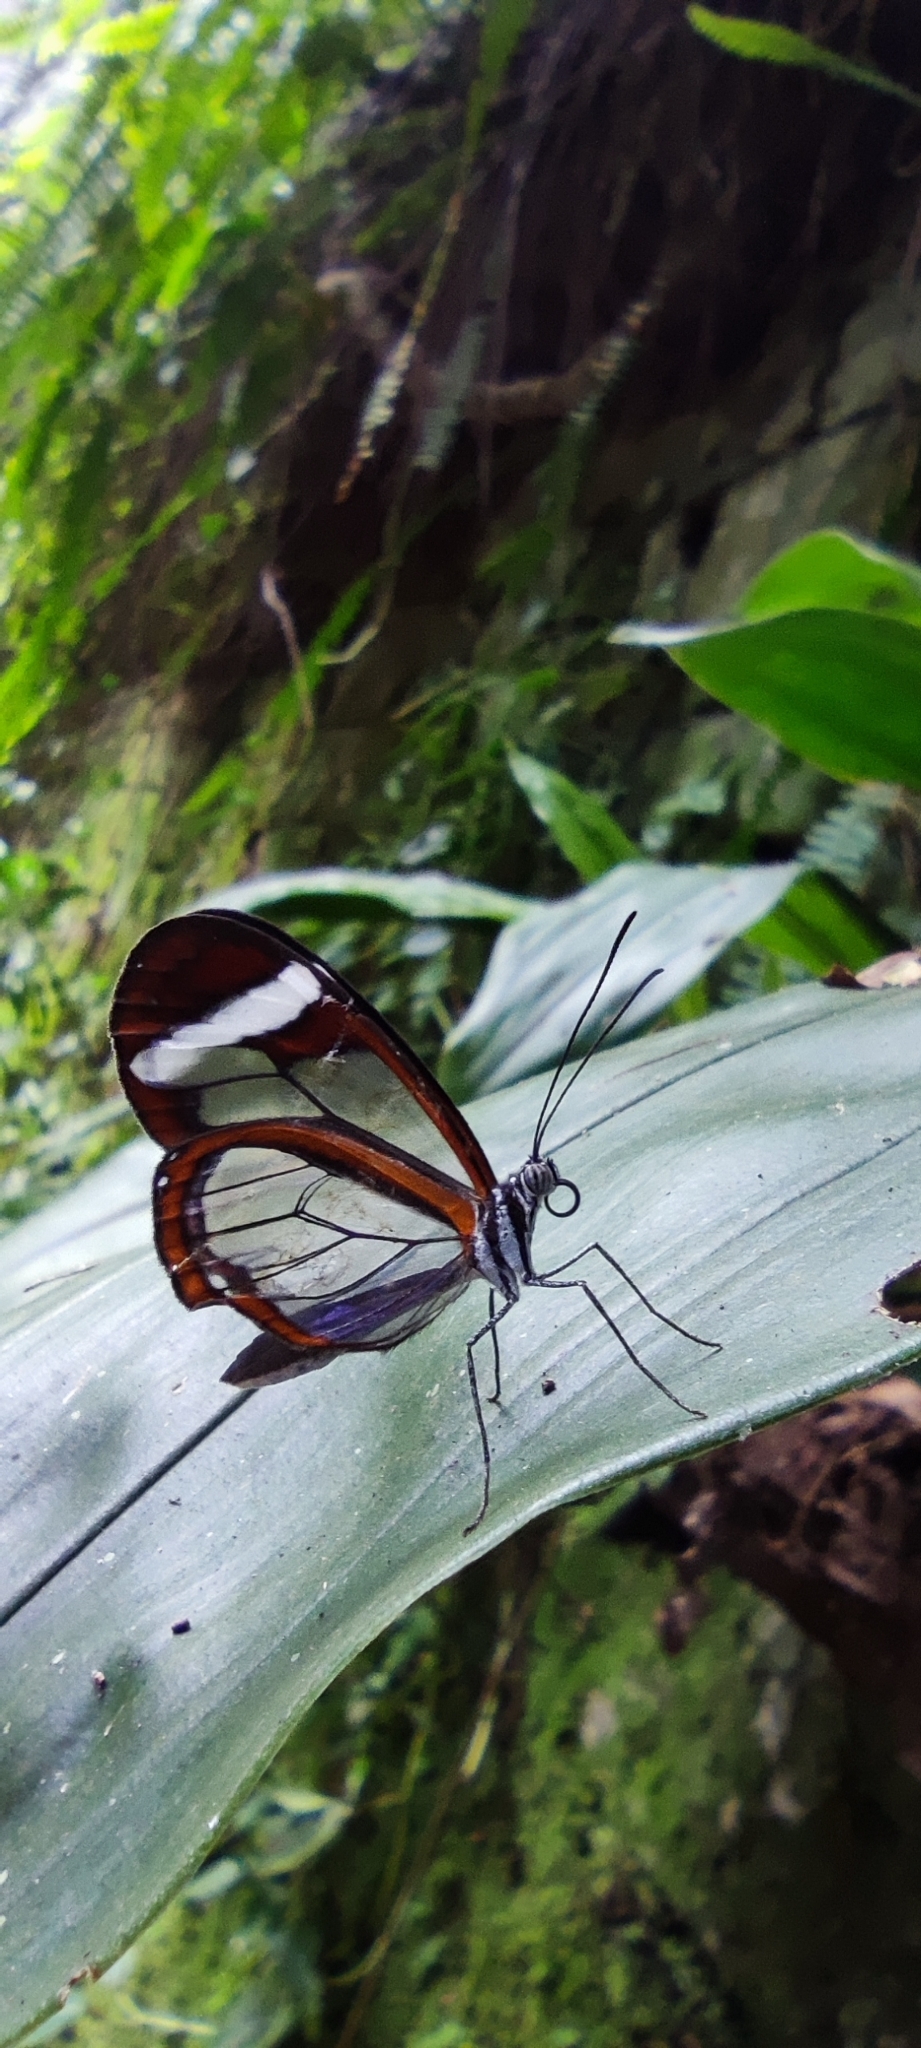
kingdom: Animalia
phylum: Arthropoda
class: Insecta
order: Lepidoptera
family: Nymphalidae
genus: Oleria
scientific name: Oleria paula
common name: Paula's clearwing
